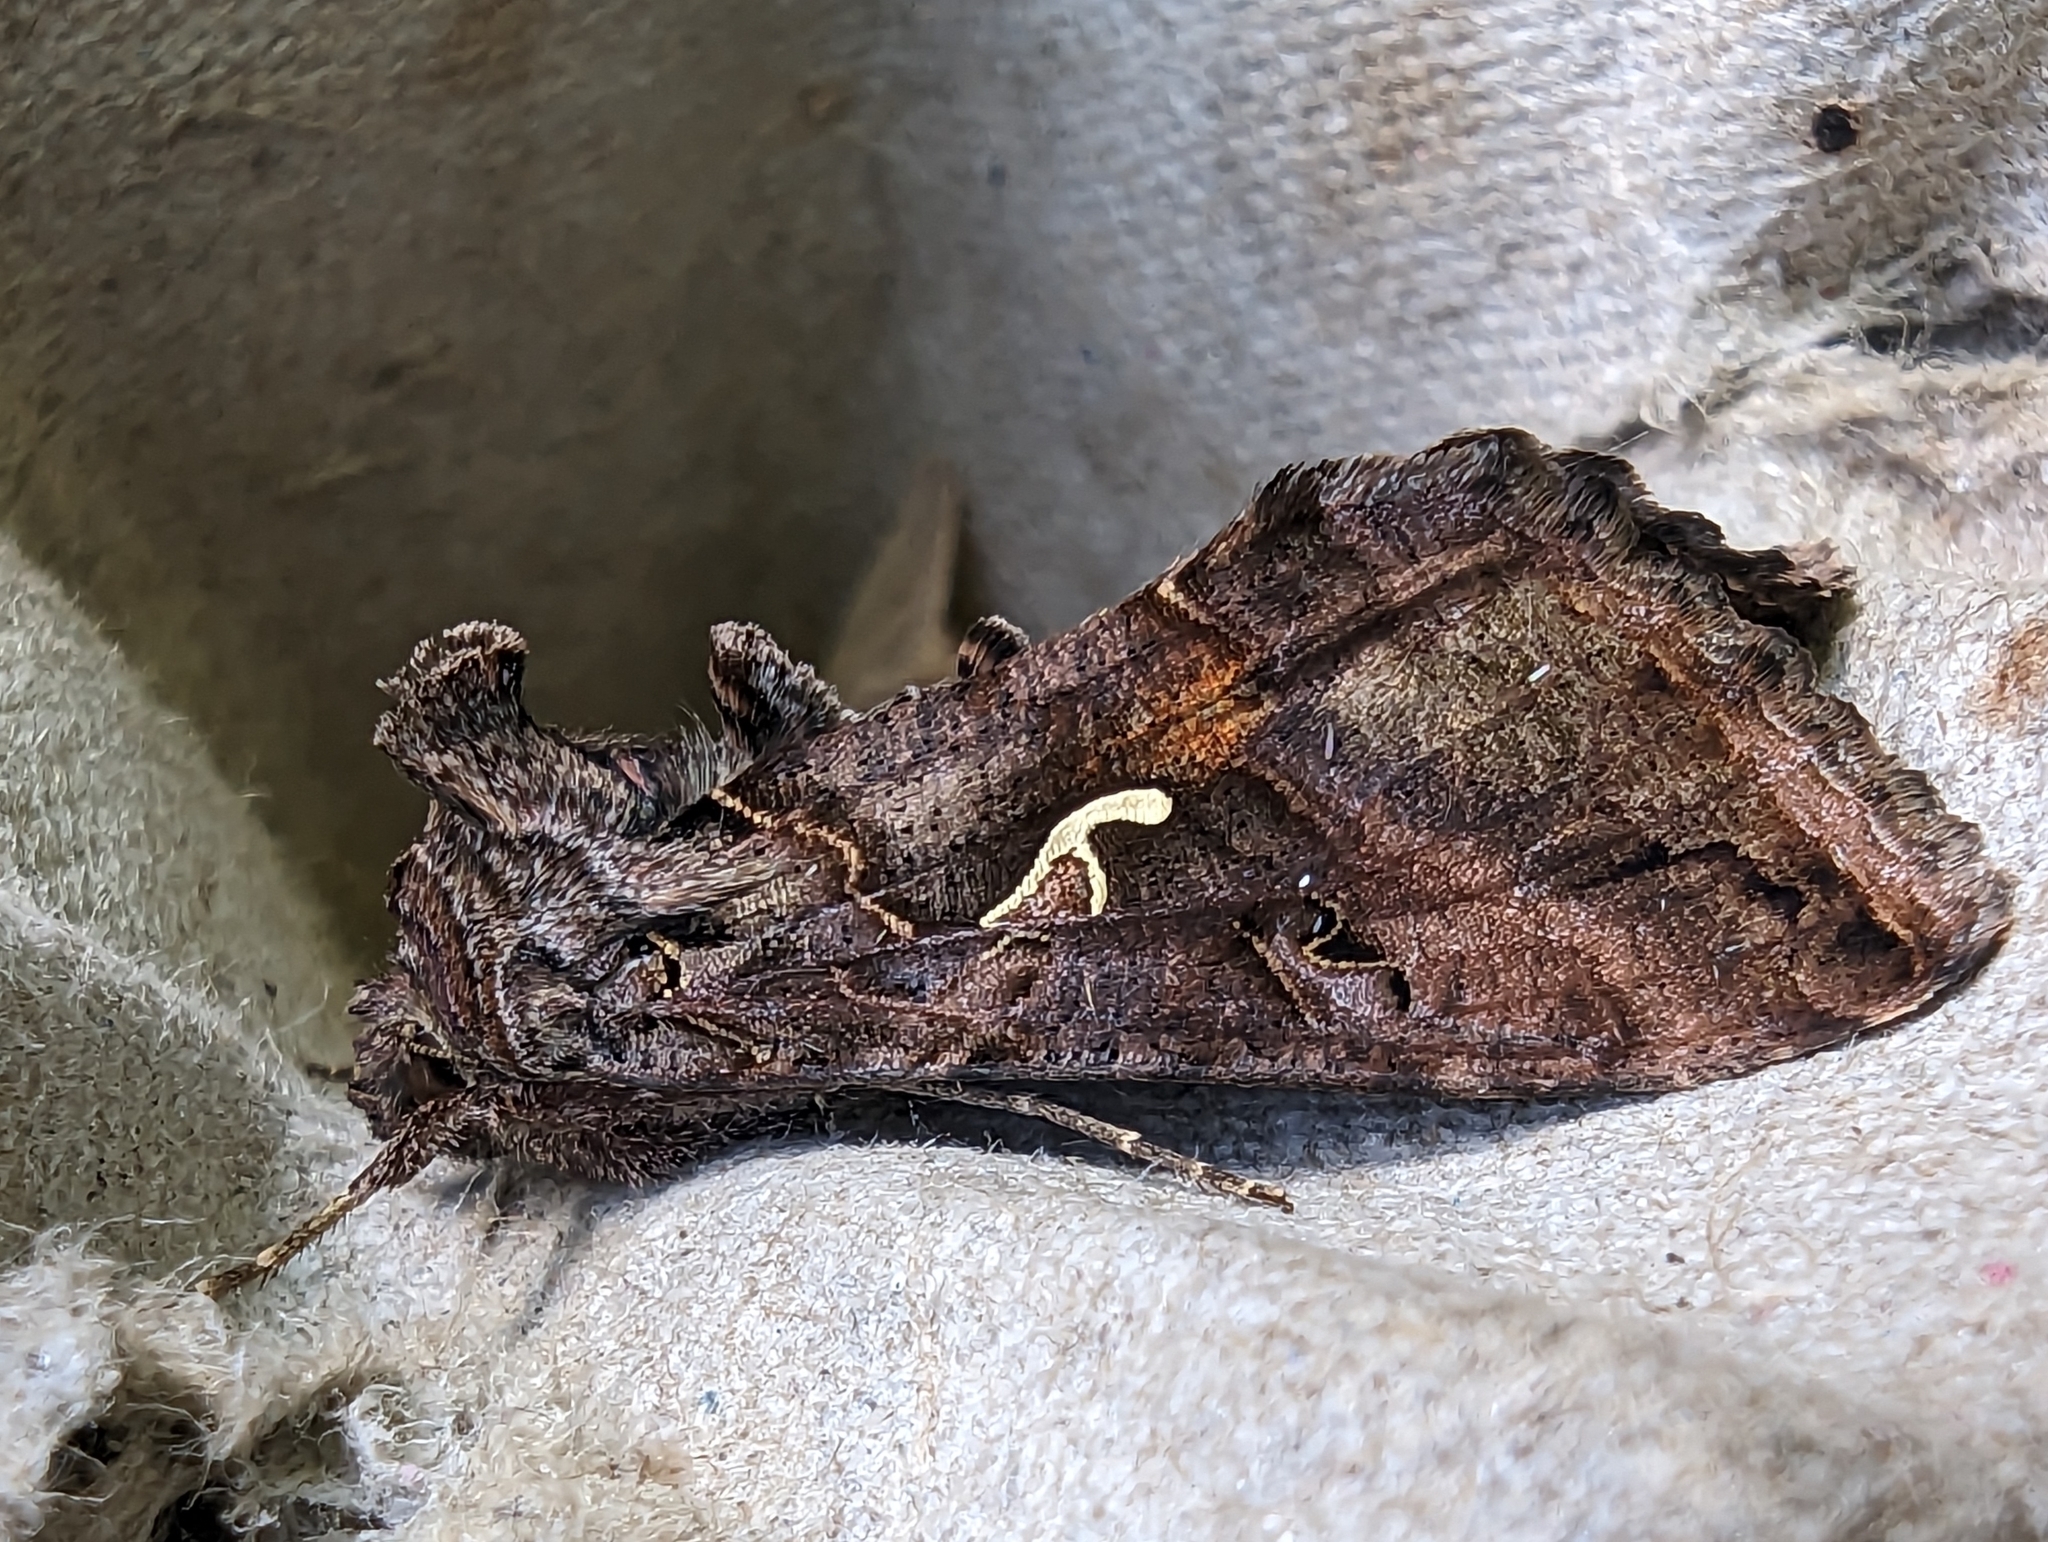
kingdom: Animalia
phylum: Arthropoda
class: Insecta
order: Lepidoptera
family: Noctuidae
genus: Autographa
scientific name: Autographa gamma
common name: Silver y
